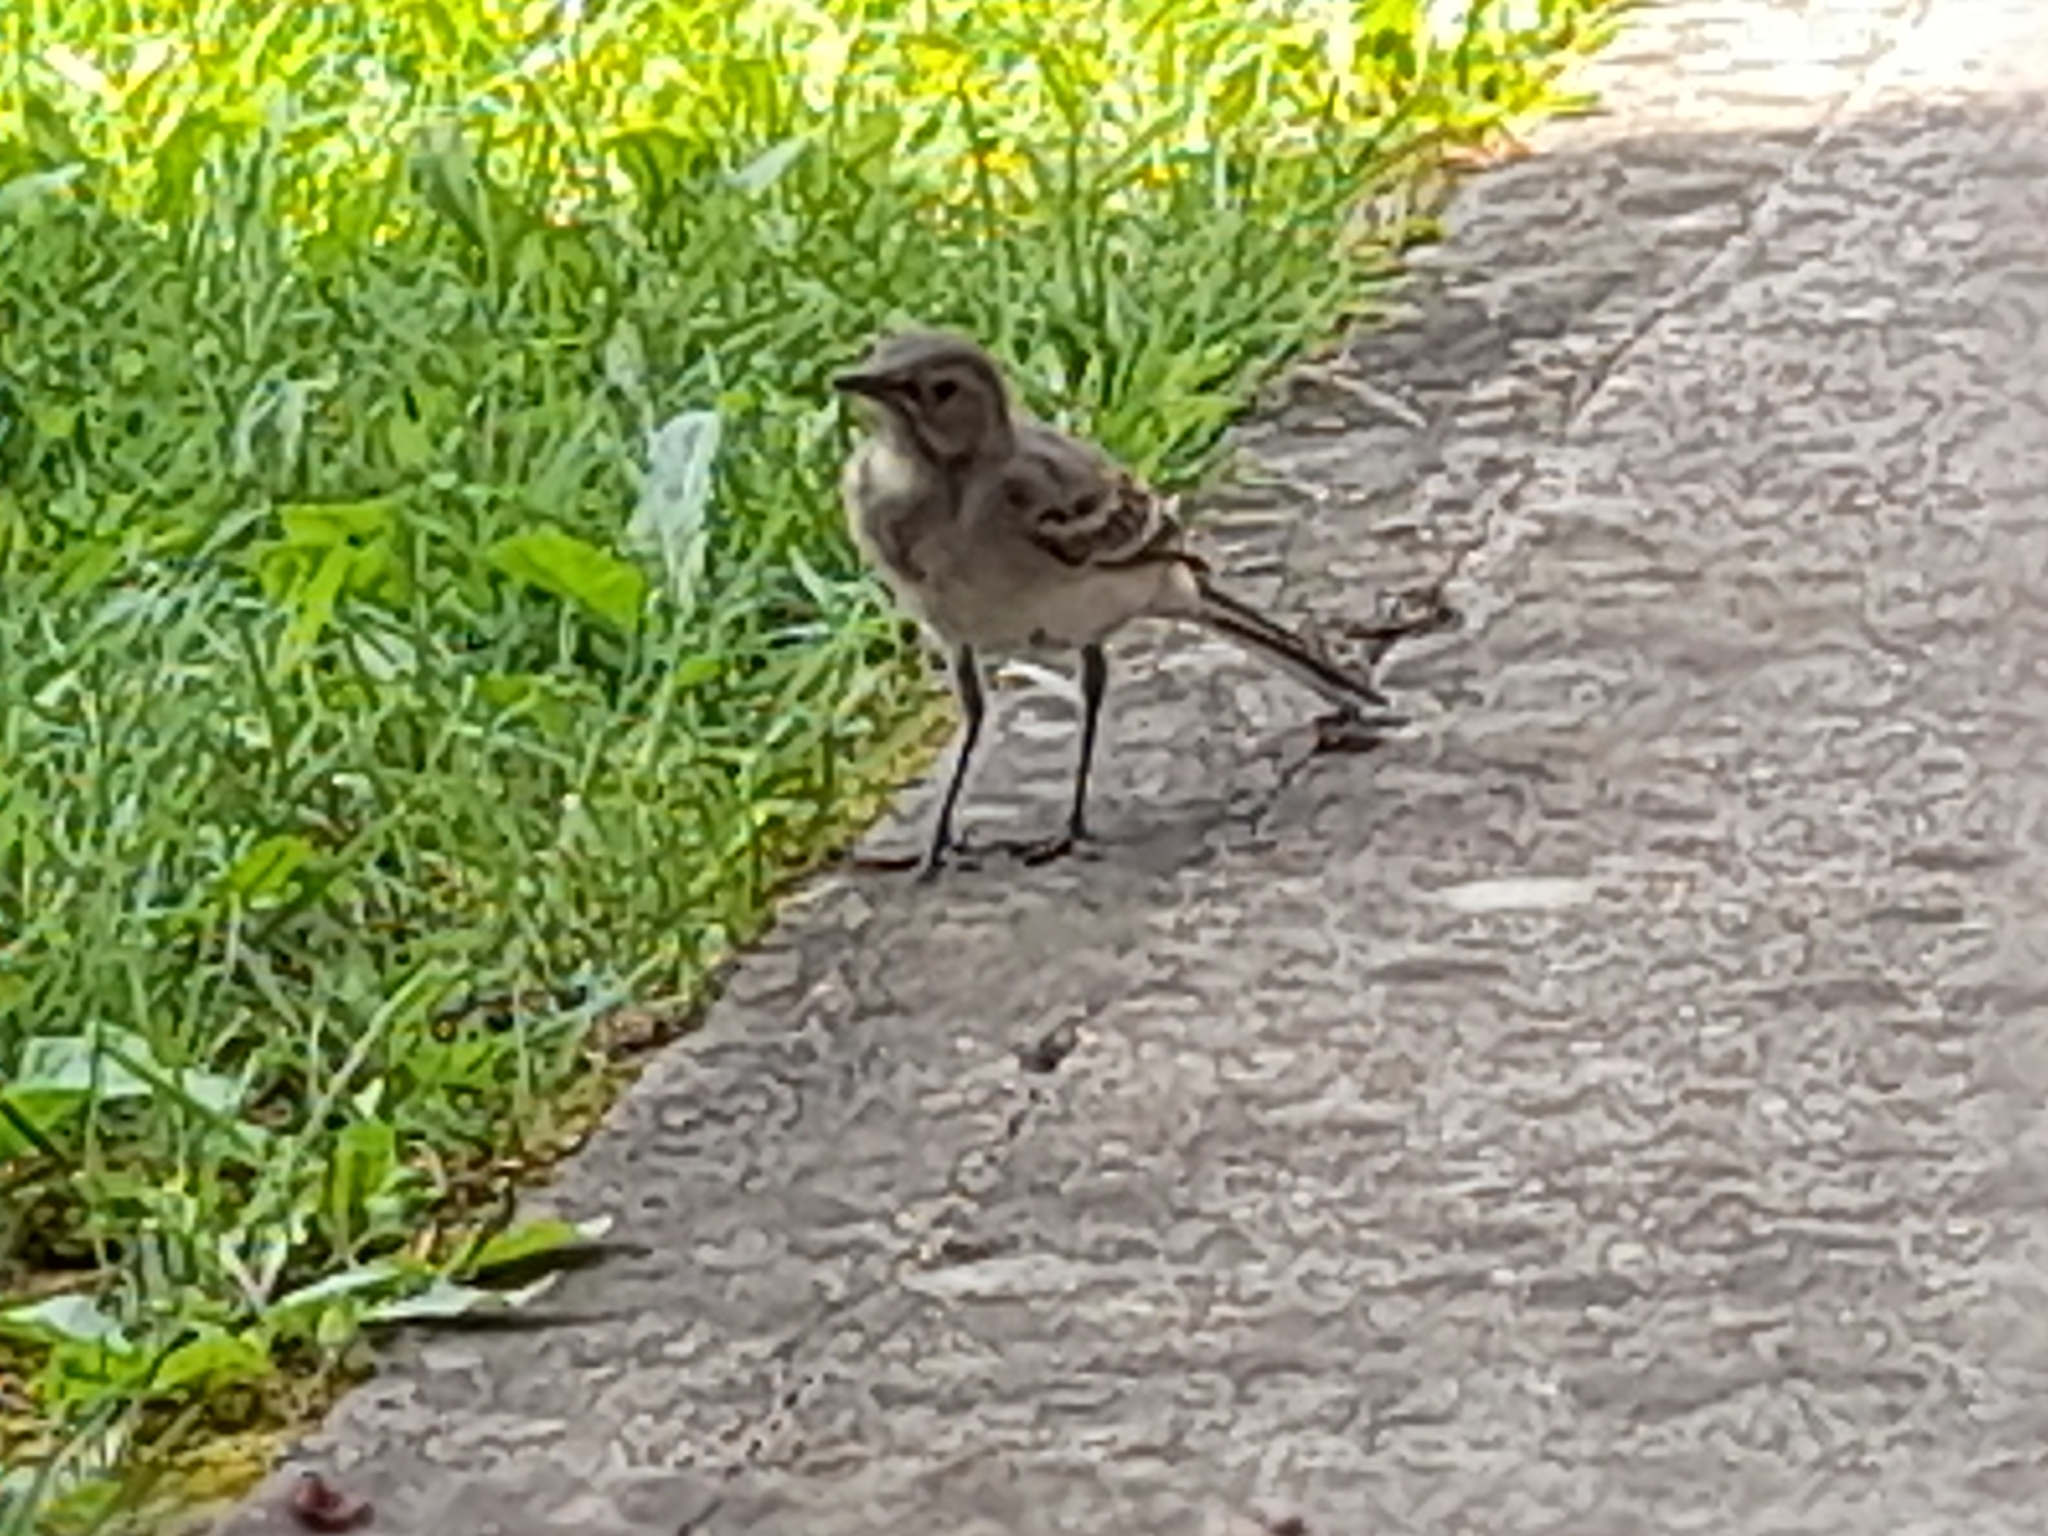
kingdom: Animalia
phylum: Chordata
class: Aves
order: Passeriformes
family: Motacillidae
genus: Motacilla
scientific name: Motacilla alba
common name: White wagtail
